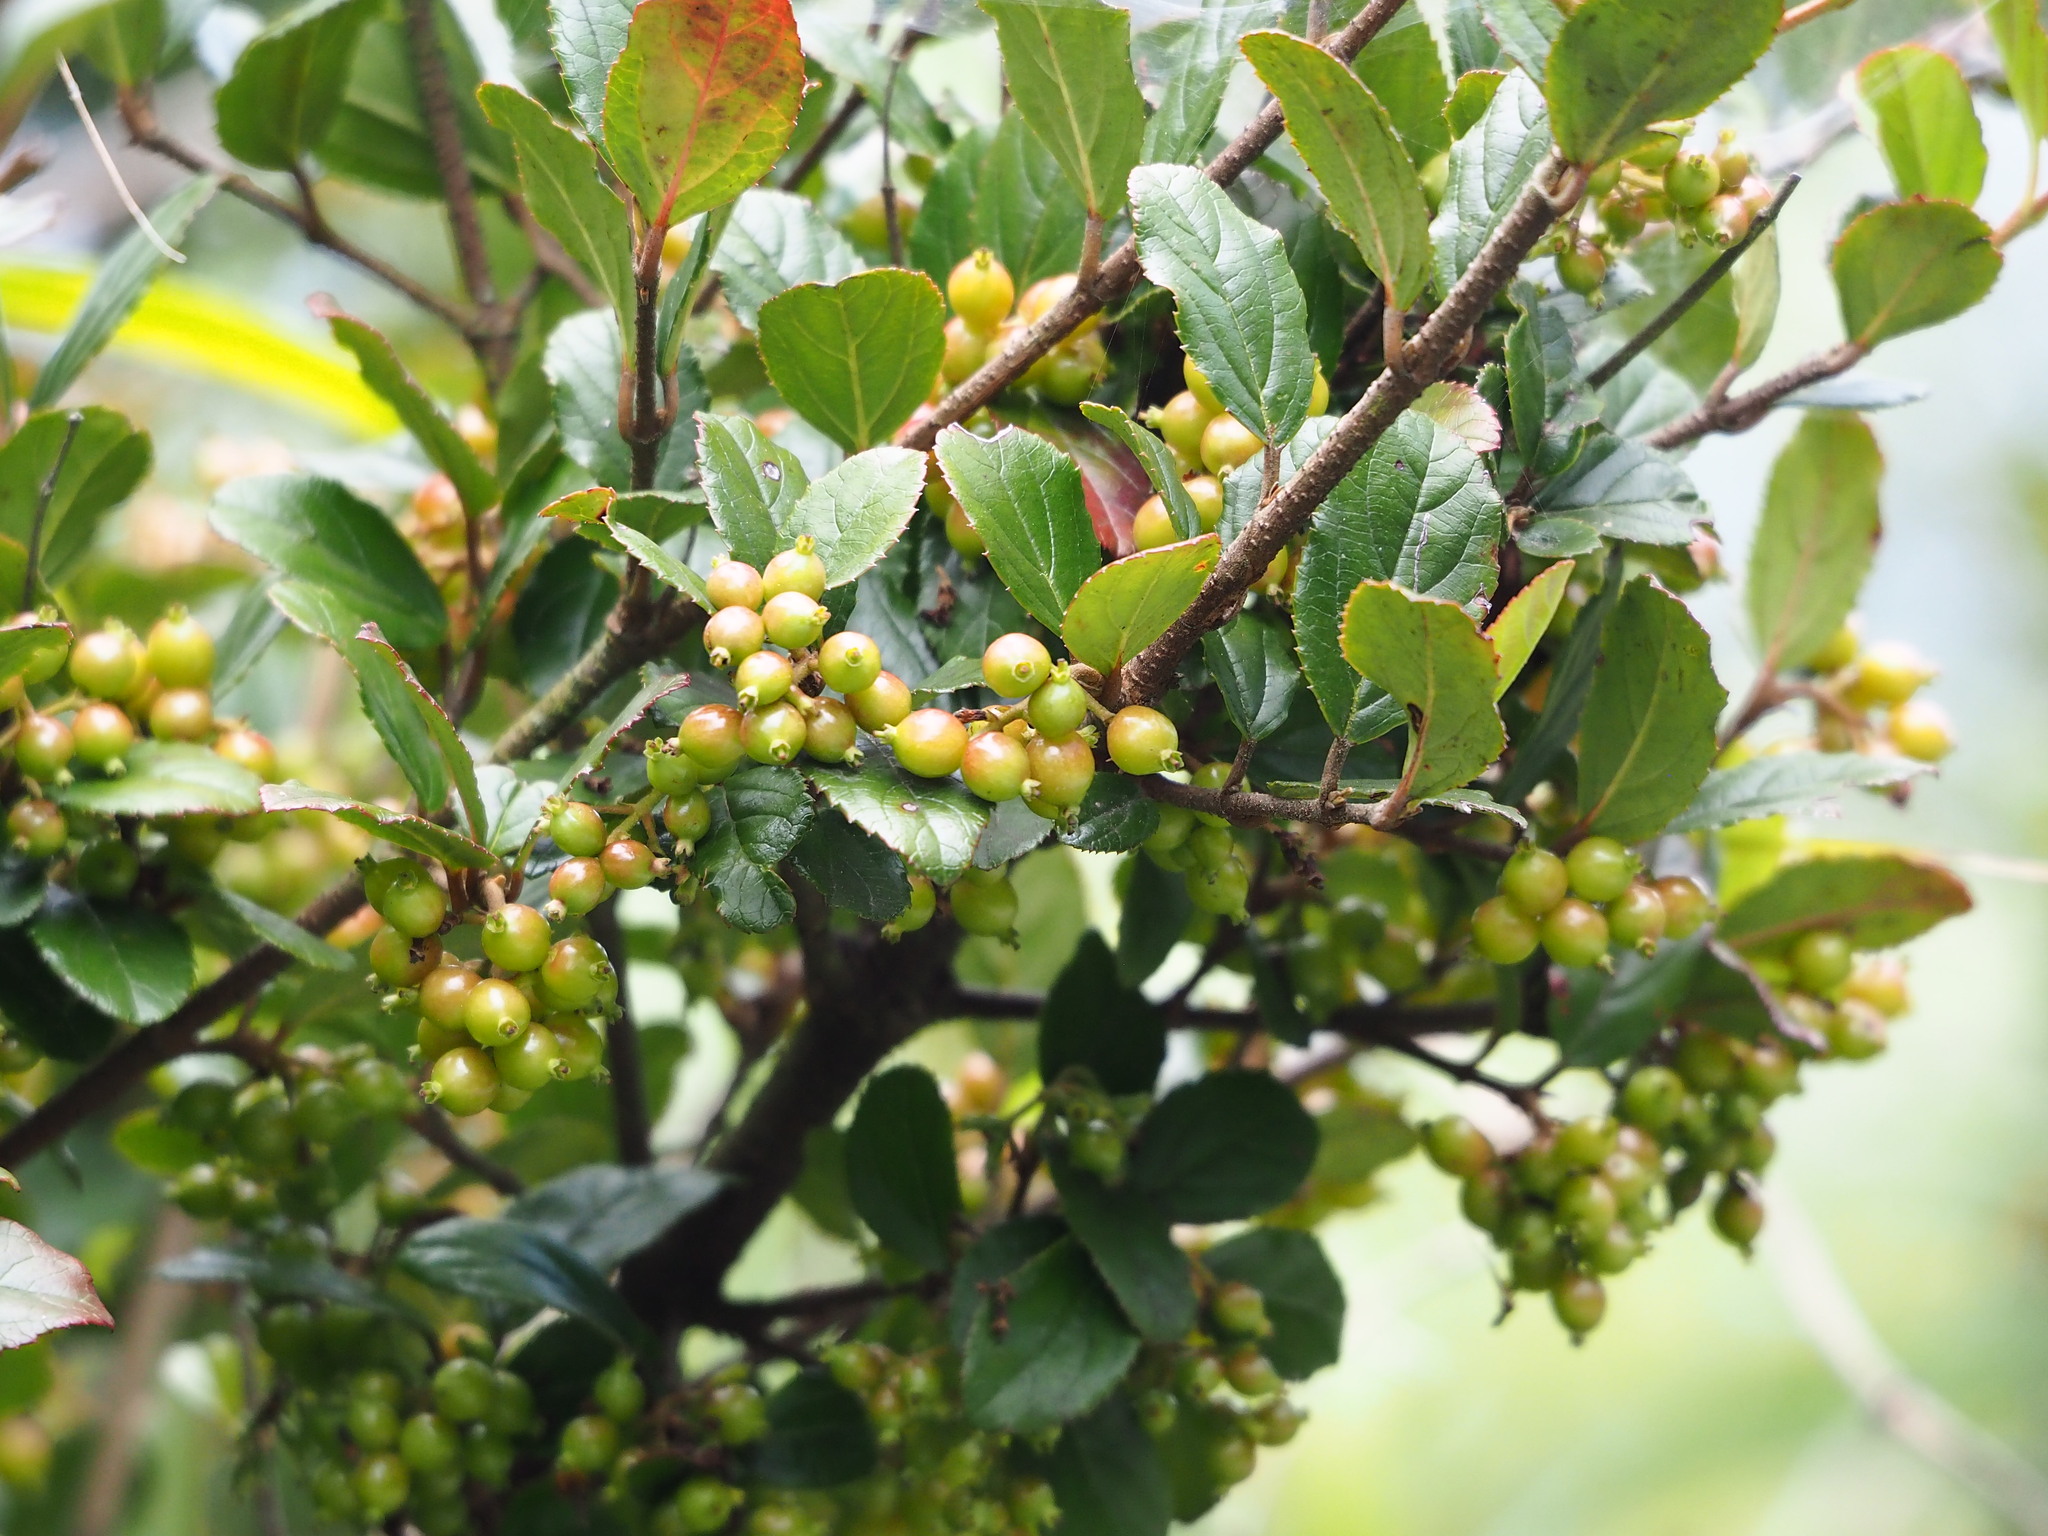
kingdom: Plantae
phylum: Tracheophyta
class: Magnoliopsida
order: Dipsacales
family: Viburnaceae
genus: Viburnum
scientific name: Viburnum taitoense
